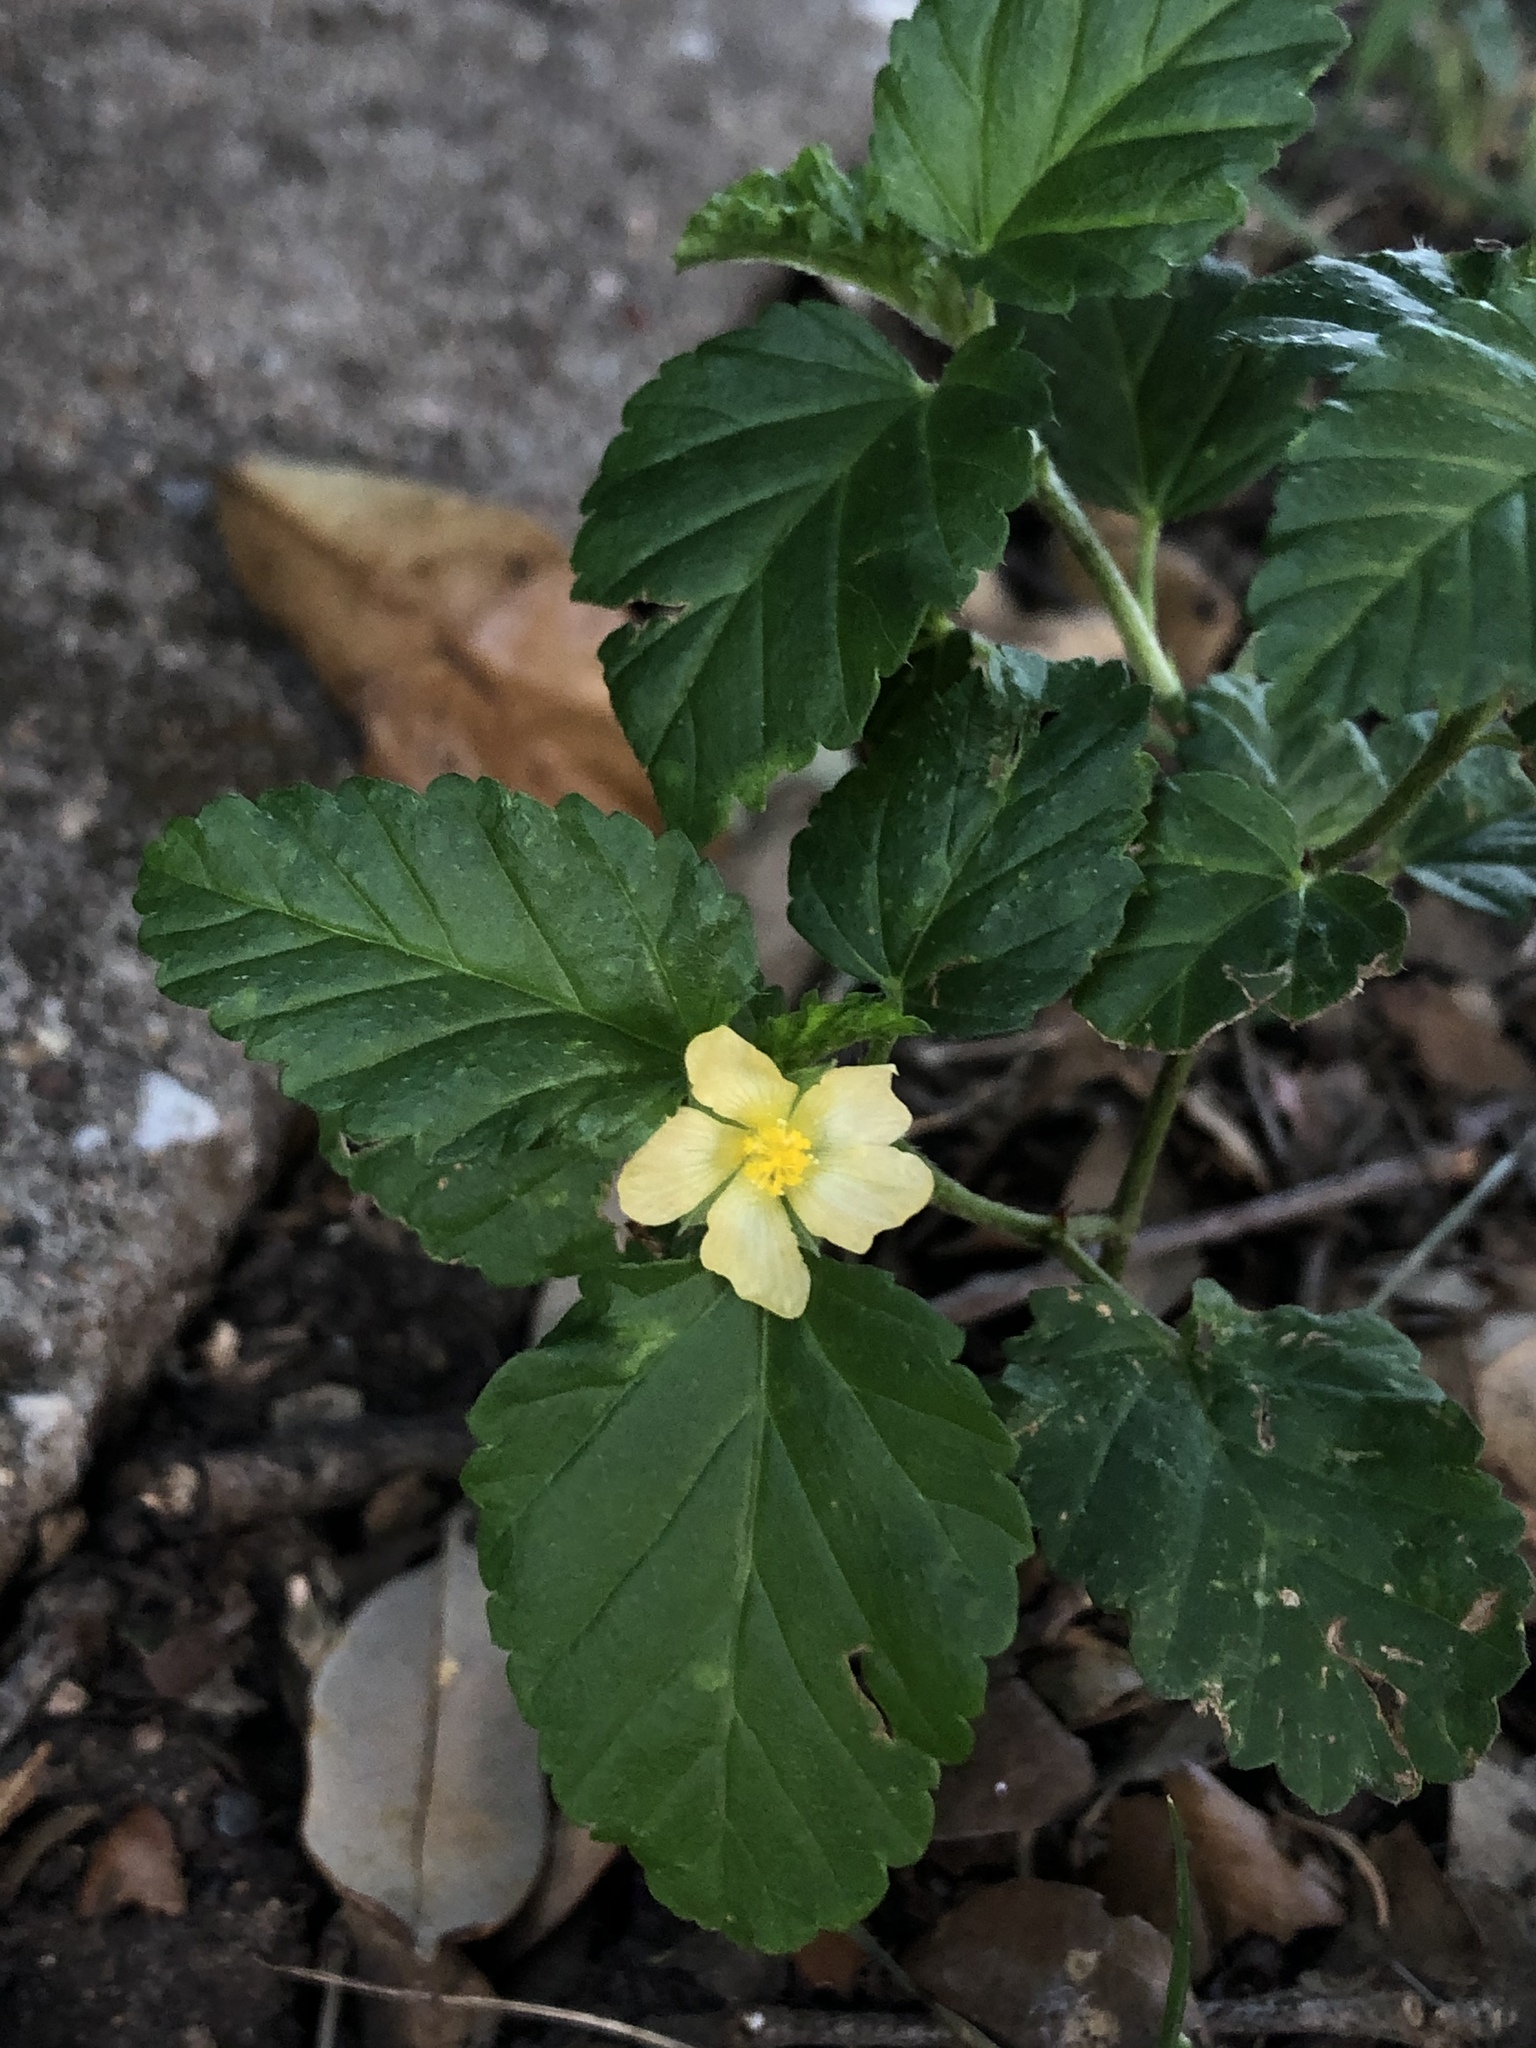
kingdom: Plantae
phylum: Tracheophyta
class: Magnoliopsida
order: Malvales
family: Malvaceae
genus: Malvastrum
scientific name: Malvastrum coromandelianum
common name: Threelobe false mallow
